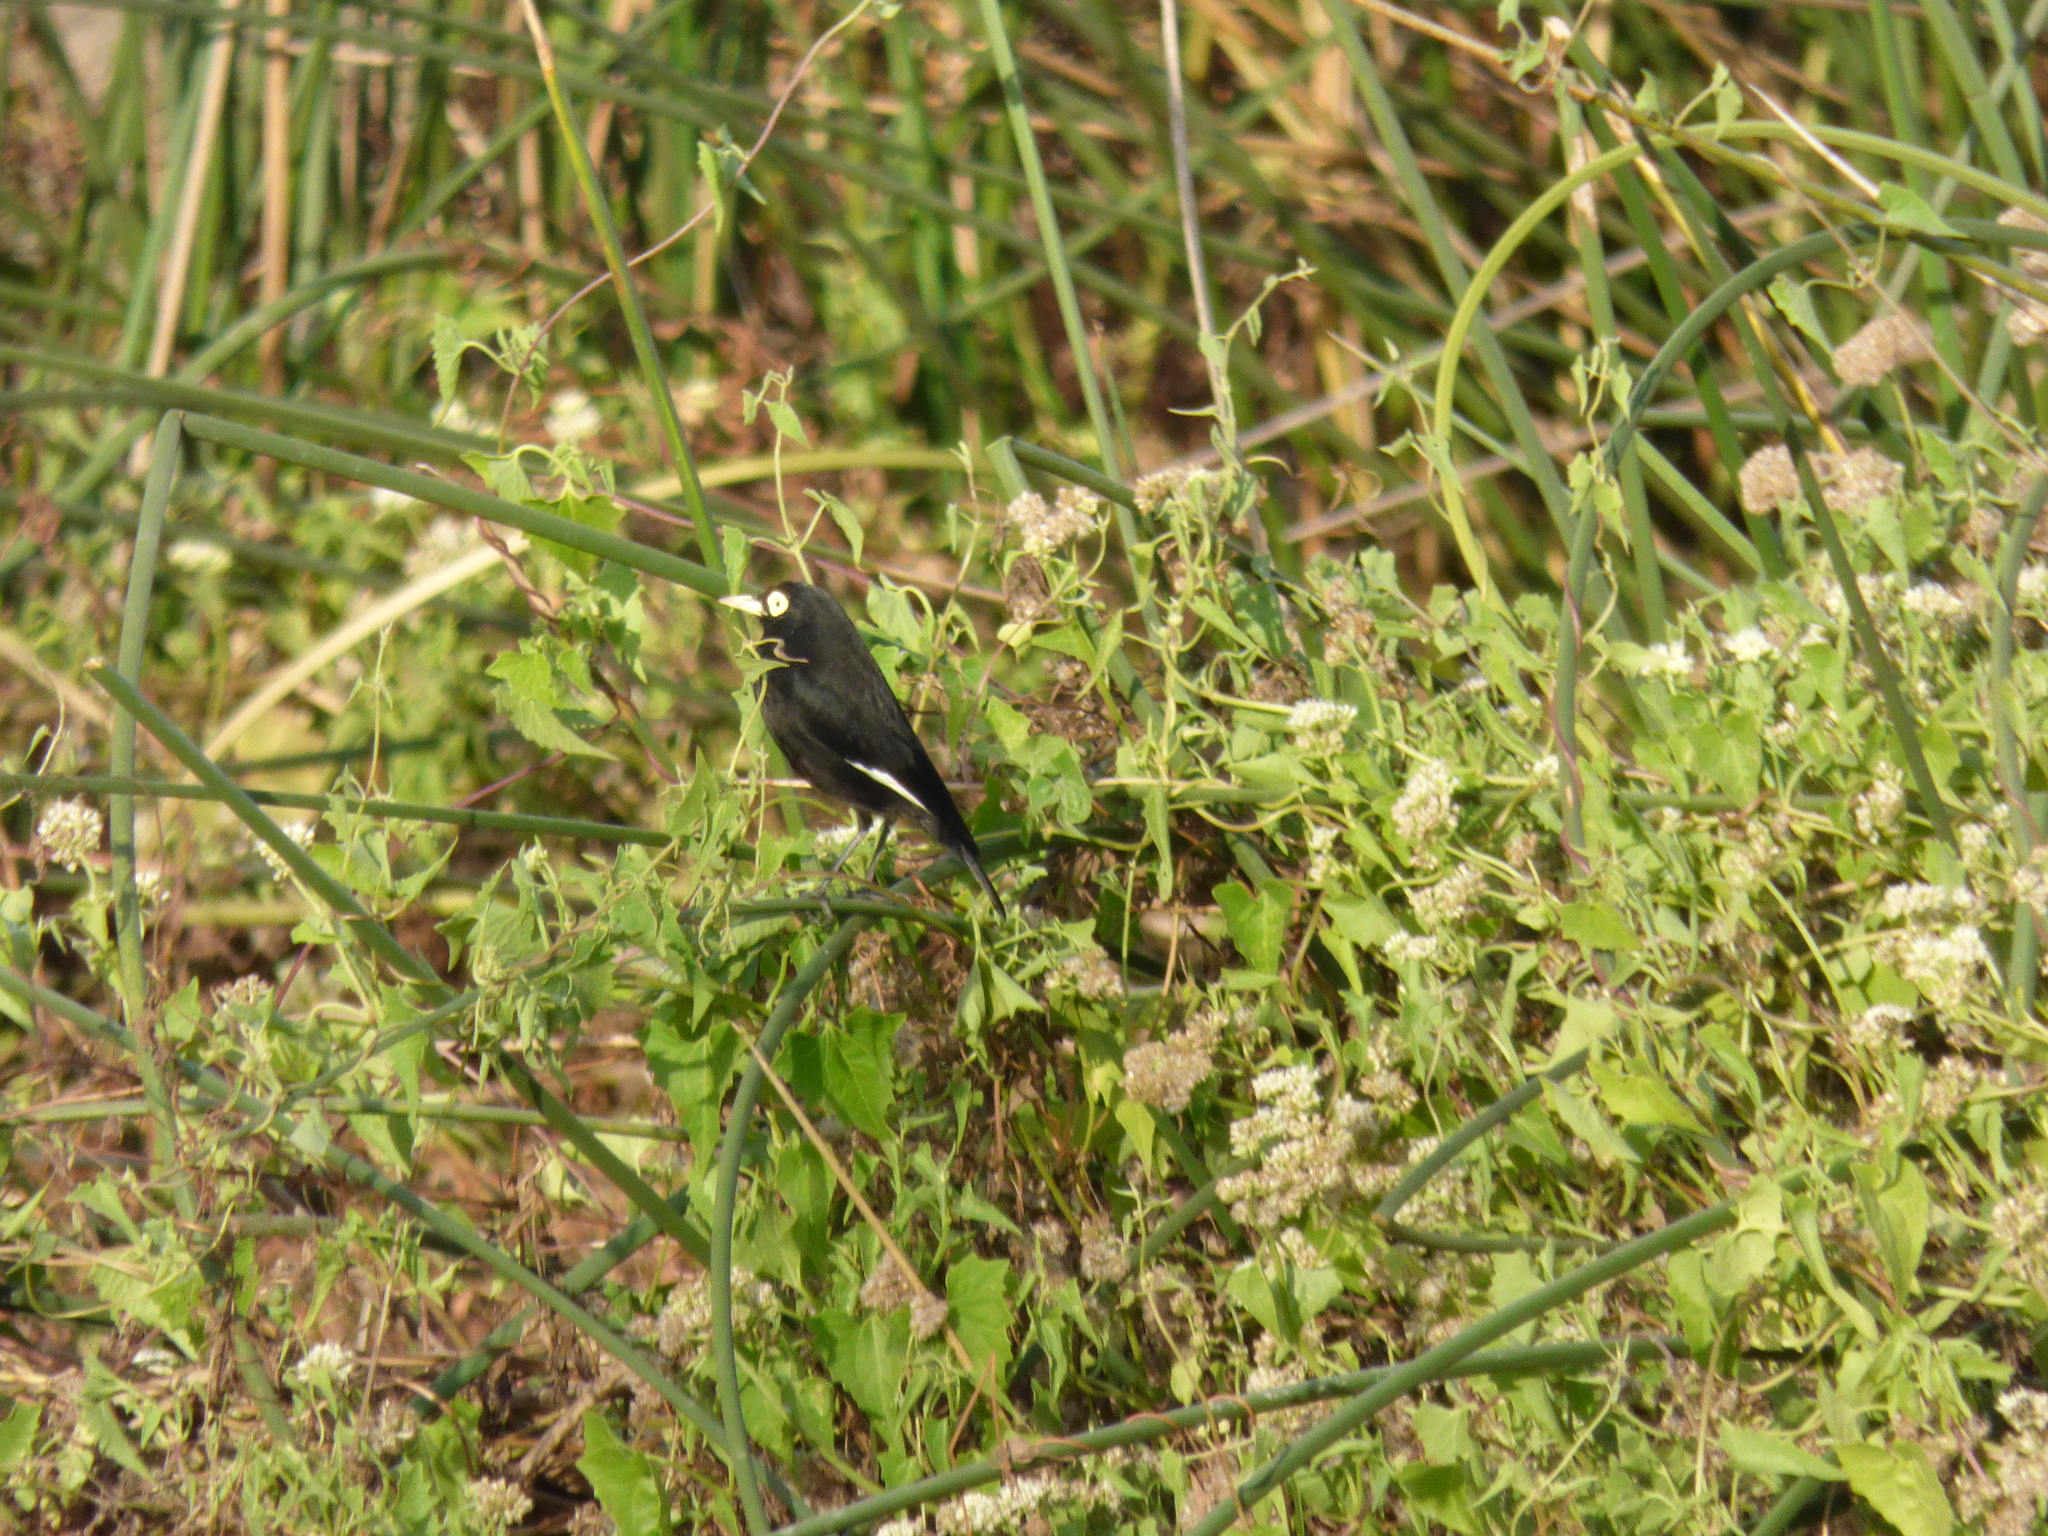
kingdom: Animalia
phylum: Chordata
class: Aves
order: Passeriformes
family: Tyrannidae
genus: Hymenops
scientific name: Hymenops perspicillatus
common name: Spectacled tyrant
